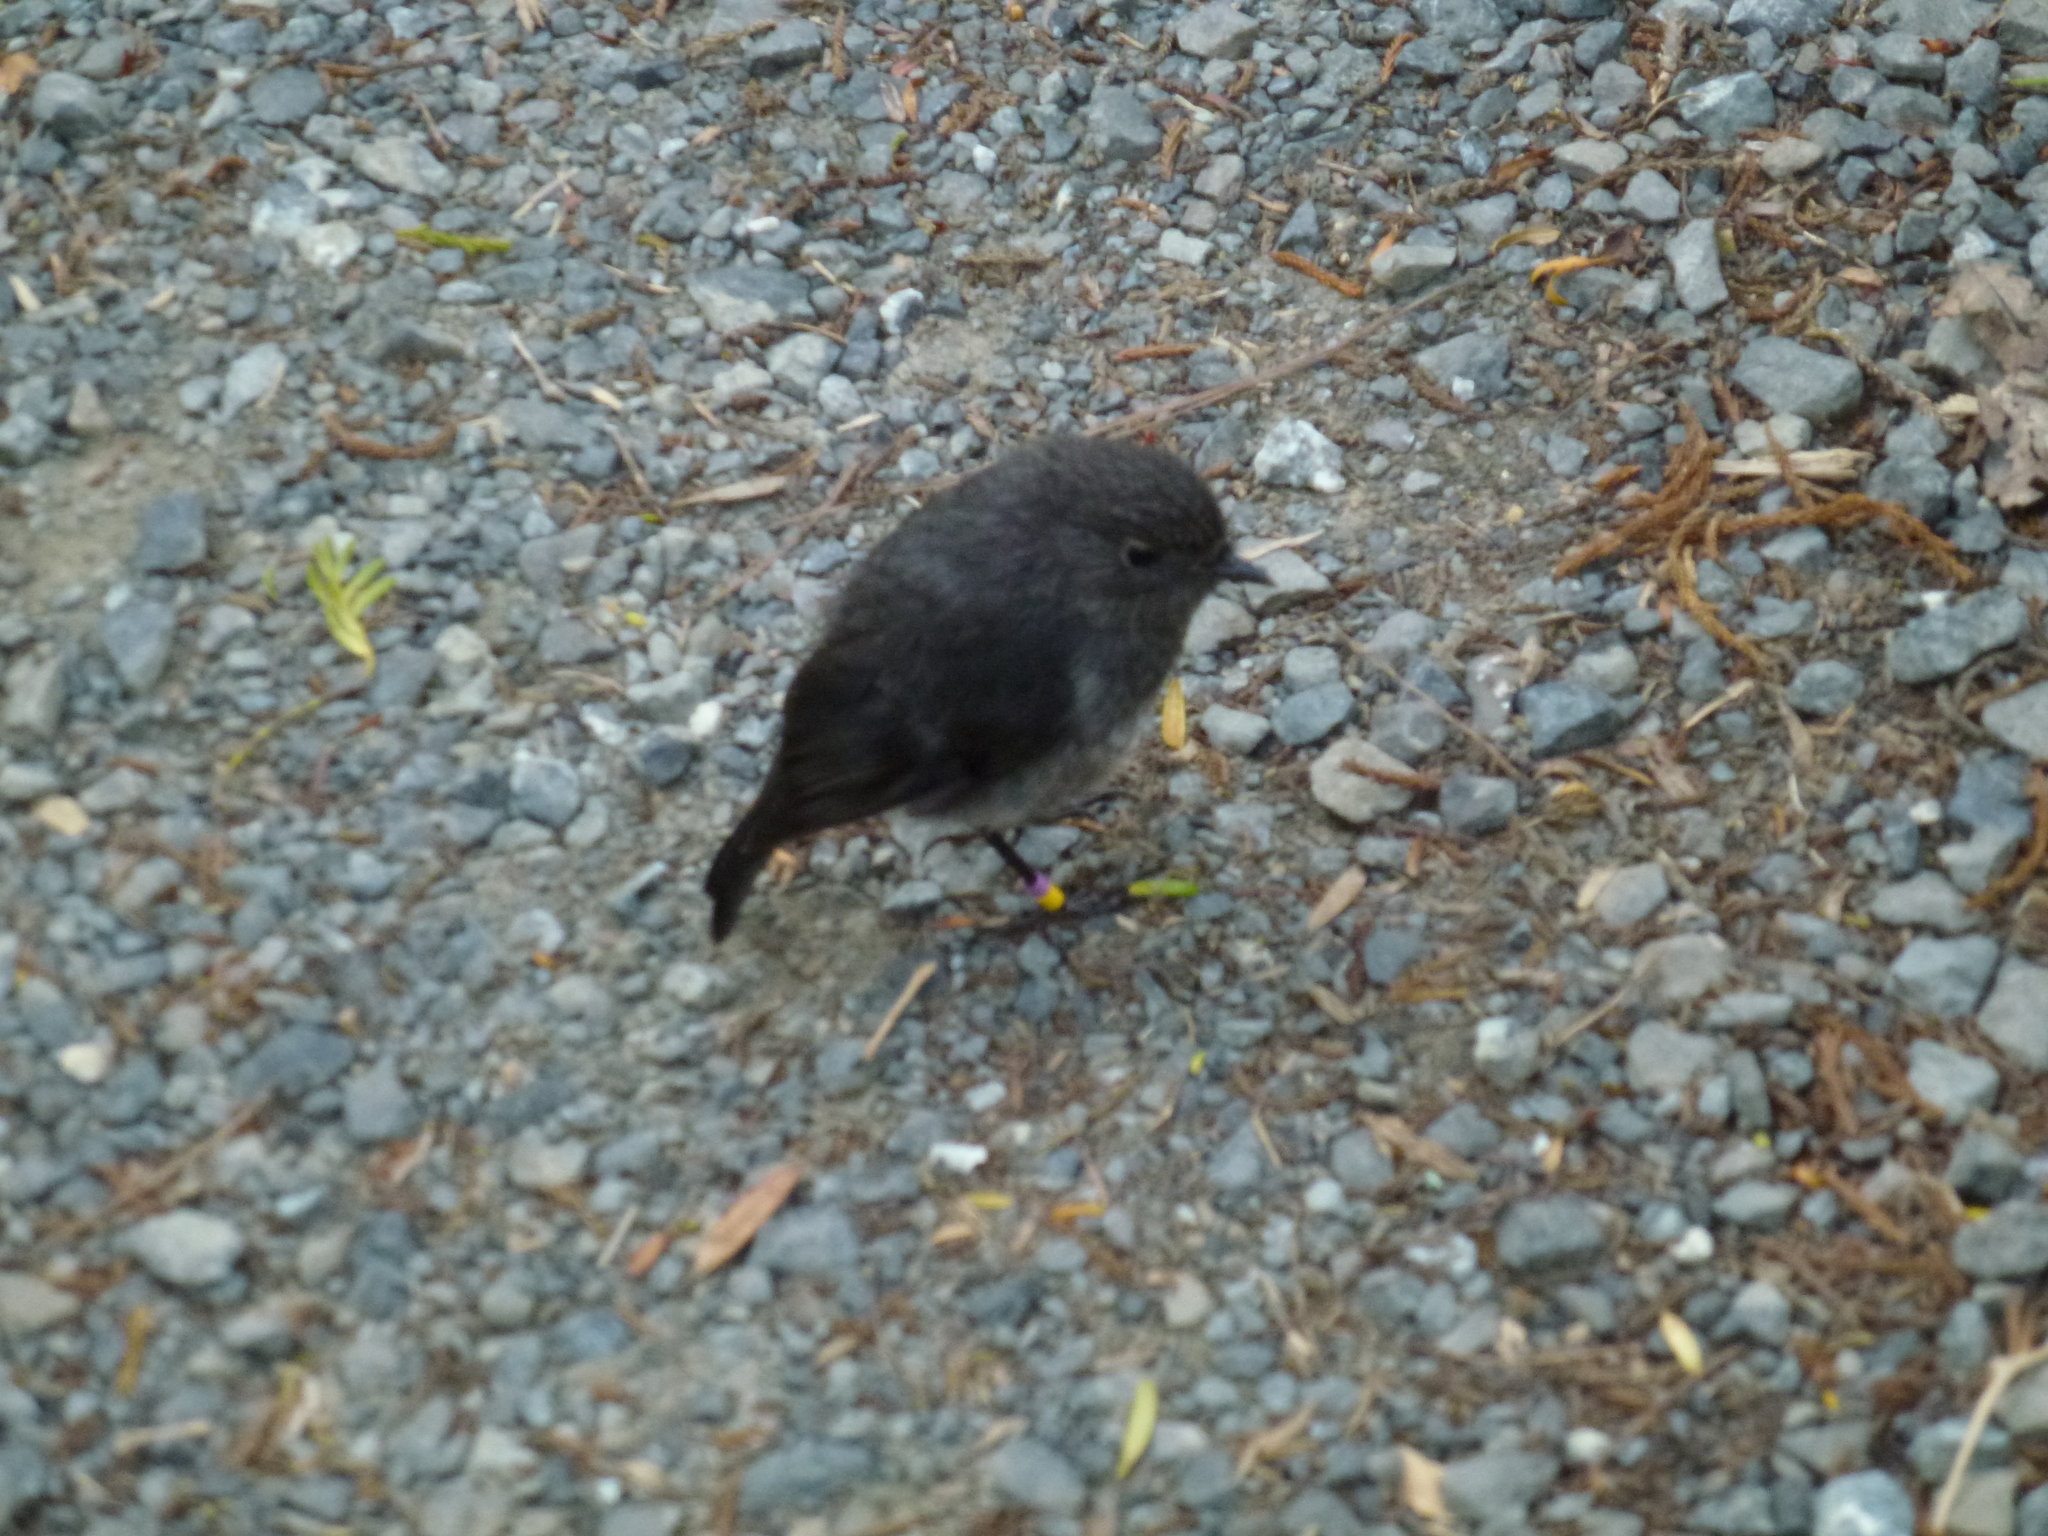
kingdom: Animalia
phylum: Chordata
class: Aves
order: Passeriformes
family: Petroicidae
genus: Petroica
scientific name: Petroica australis
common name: New zealand robin
